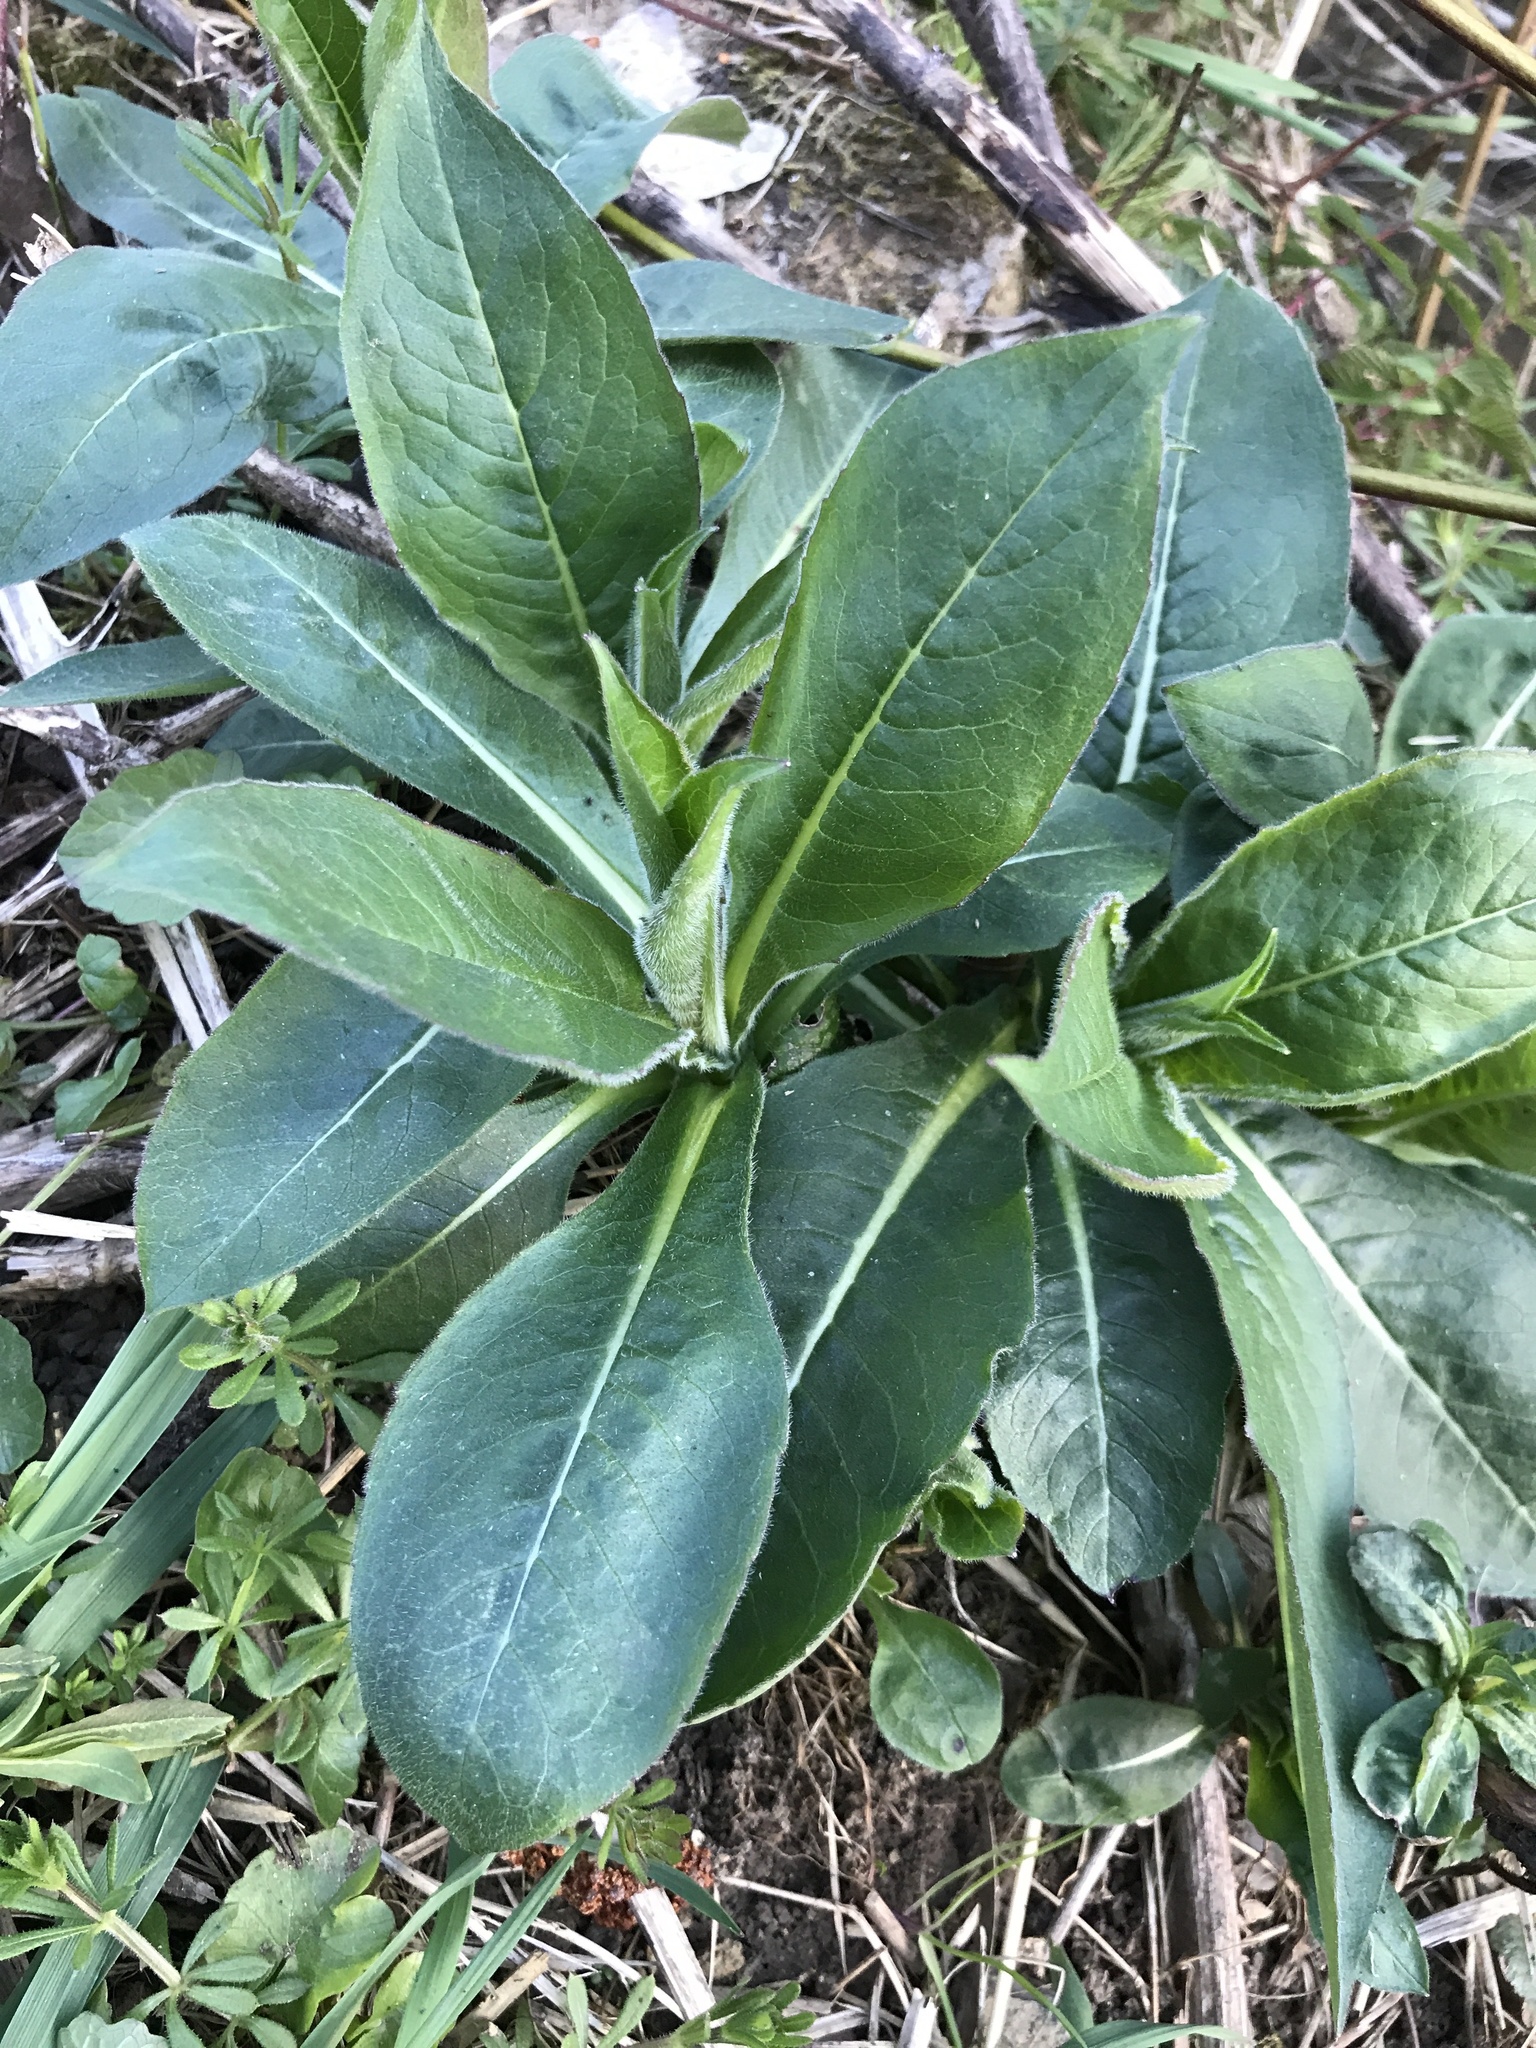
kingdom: Plantae
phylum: Tracheophyta
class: Magnoliopsida
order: Dipsacales
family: Caprifoliaceae
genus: Succisa
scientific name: Succisa pratensis
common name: Devil's-bit
